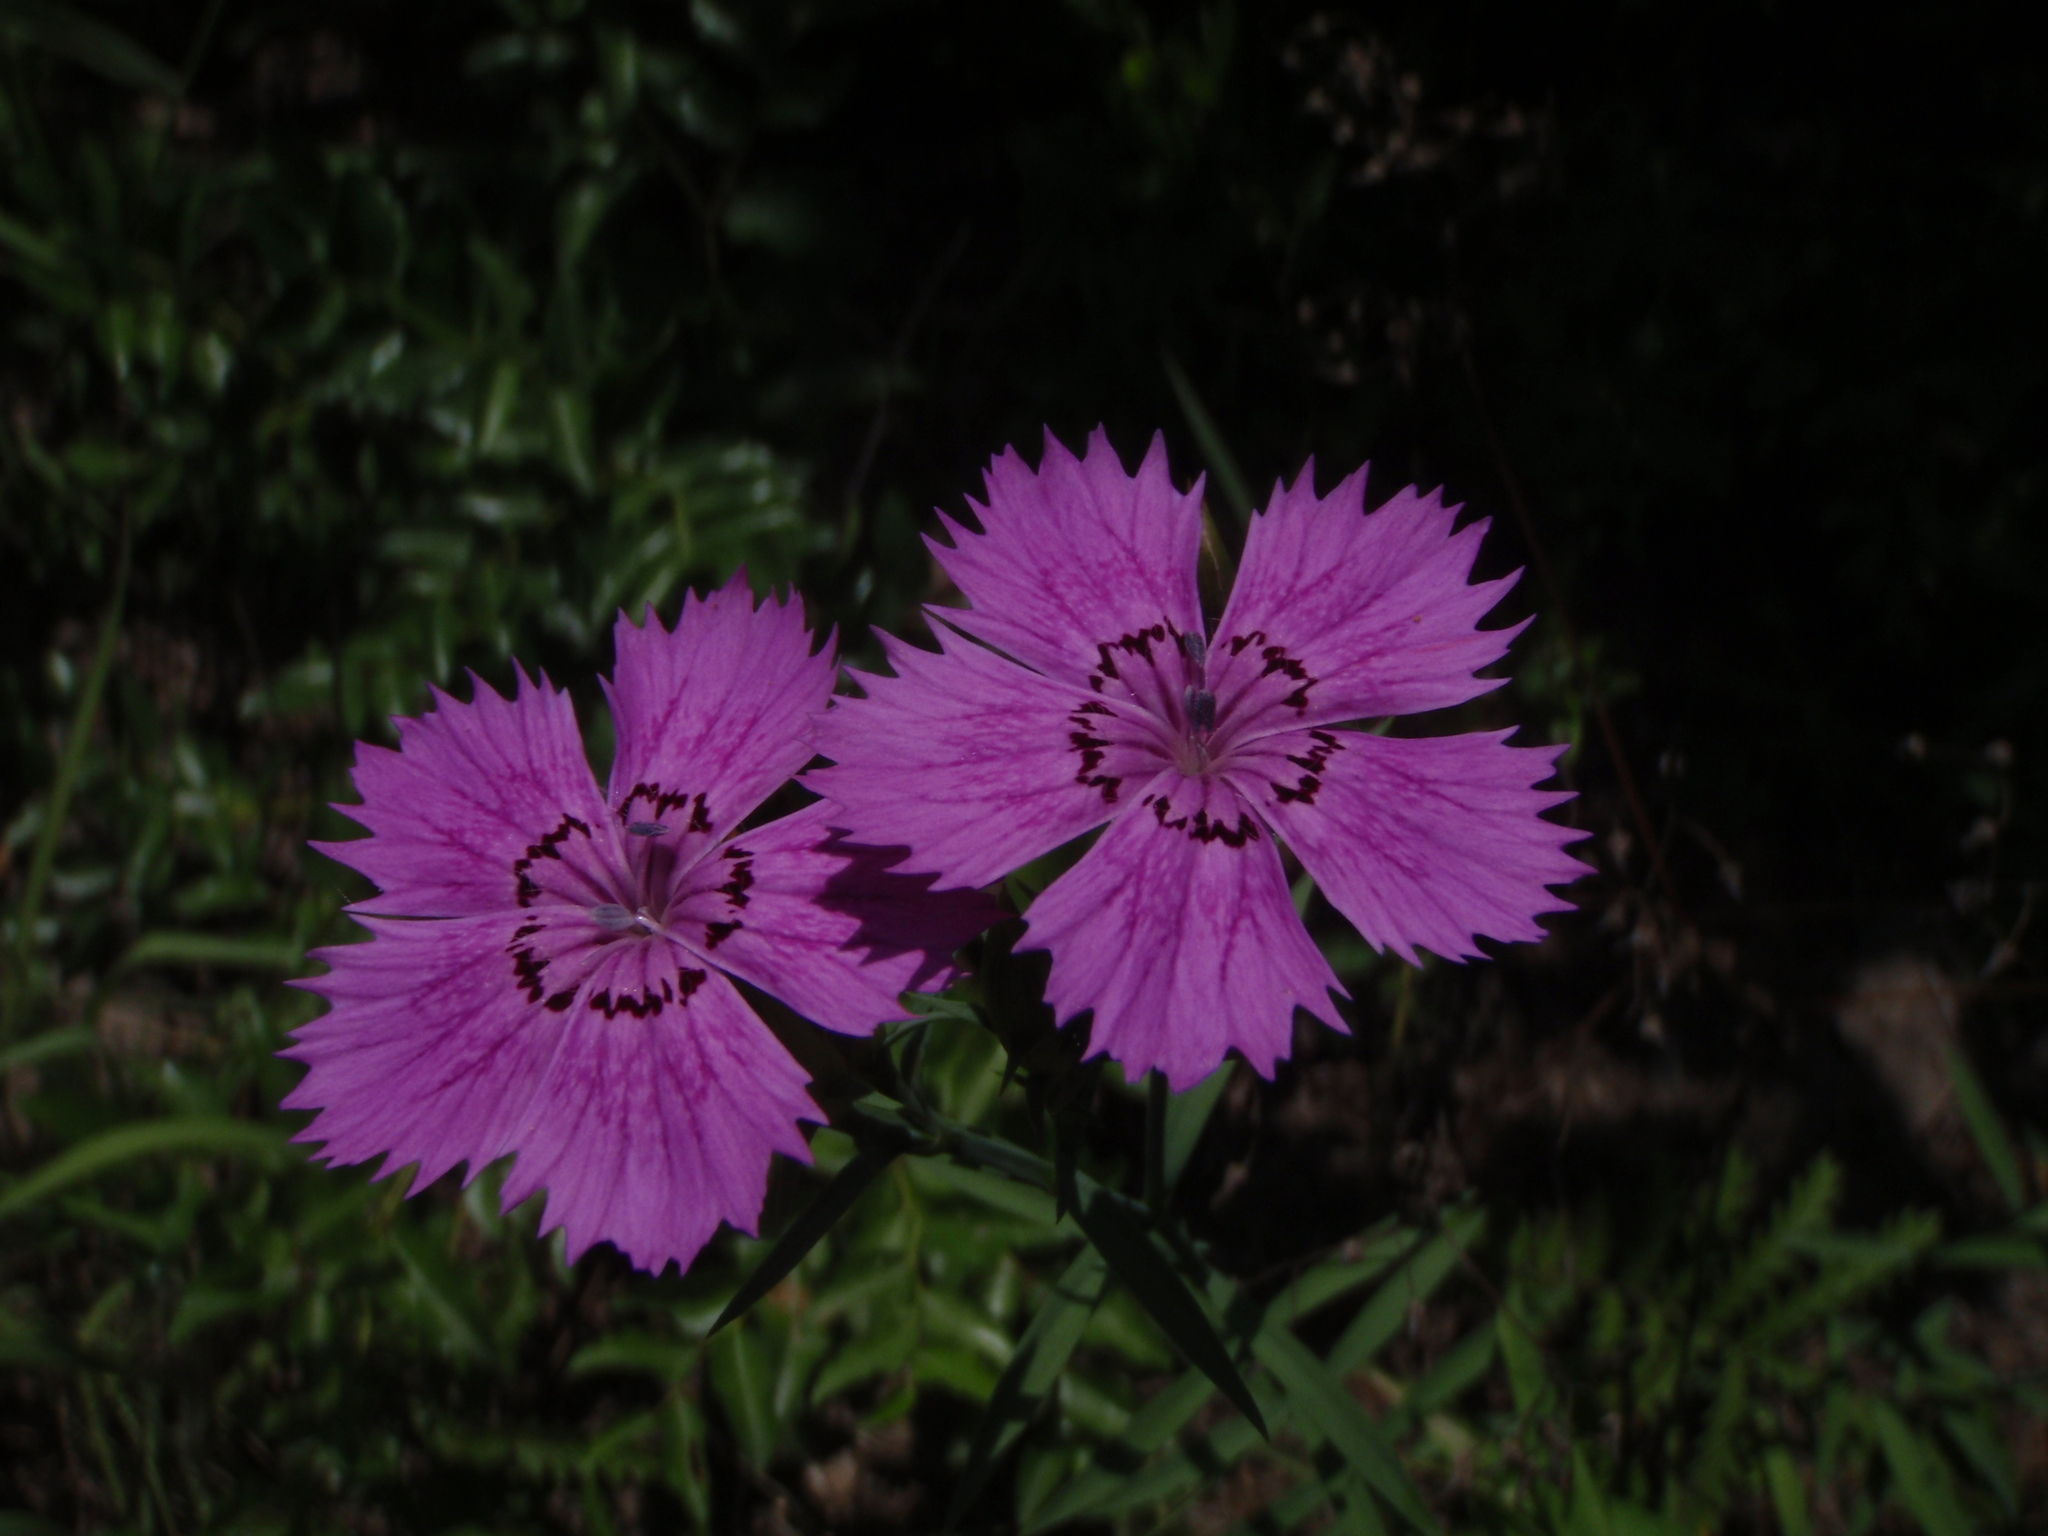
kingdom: Plantae
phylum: Tracheophyta
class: Magnoliopsida
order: Caryophyllales
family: Caryophyllaceae
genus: Dianthus
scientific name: Dianthus chinensis
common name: Rainbow pink
